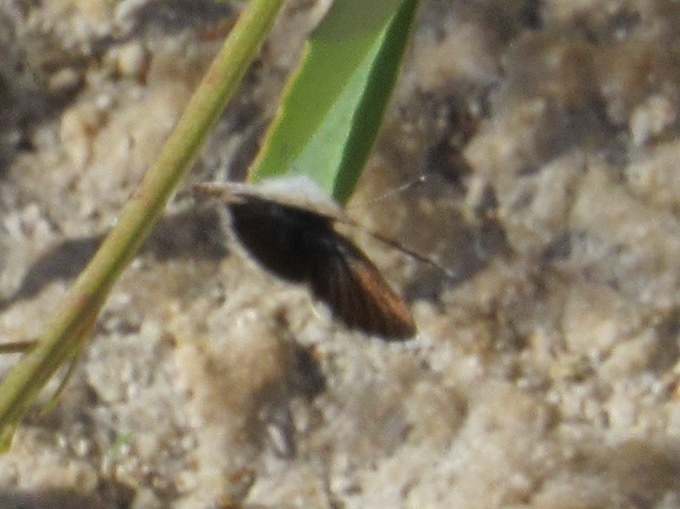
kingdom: Animalia
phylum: Arthropoda
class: Insecta
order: Lepidoptera
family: Lycaenidae
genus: Brephidium
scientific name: Brephidium exilis
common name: Pygmy blue
